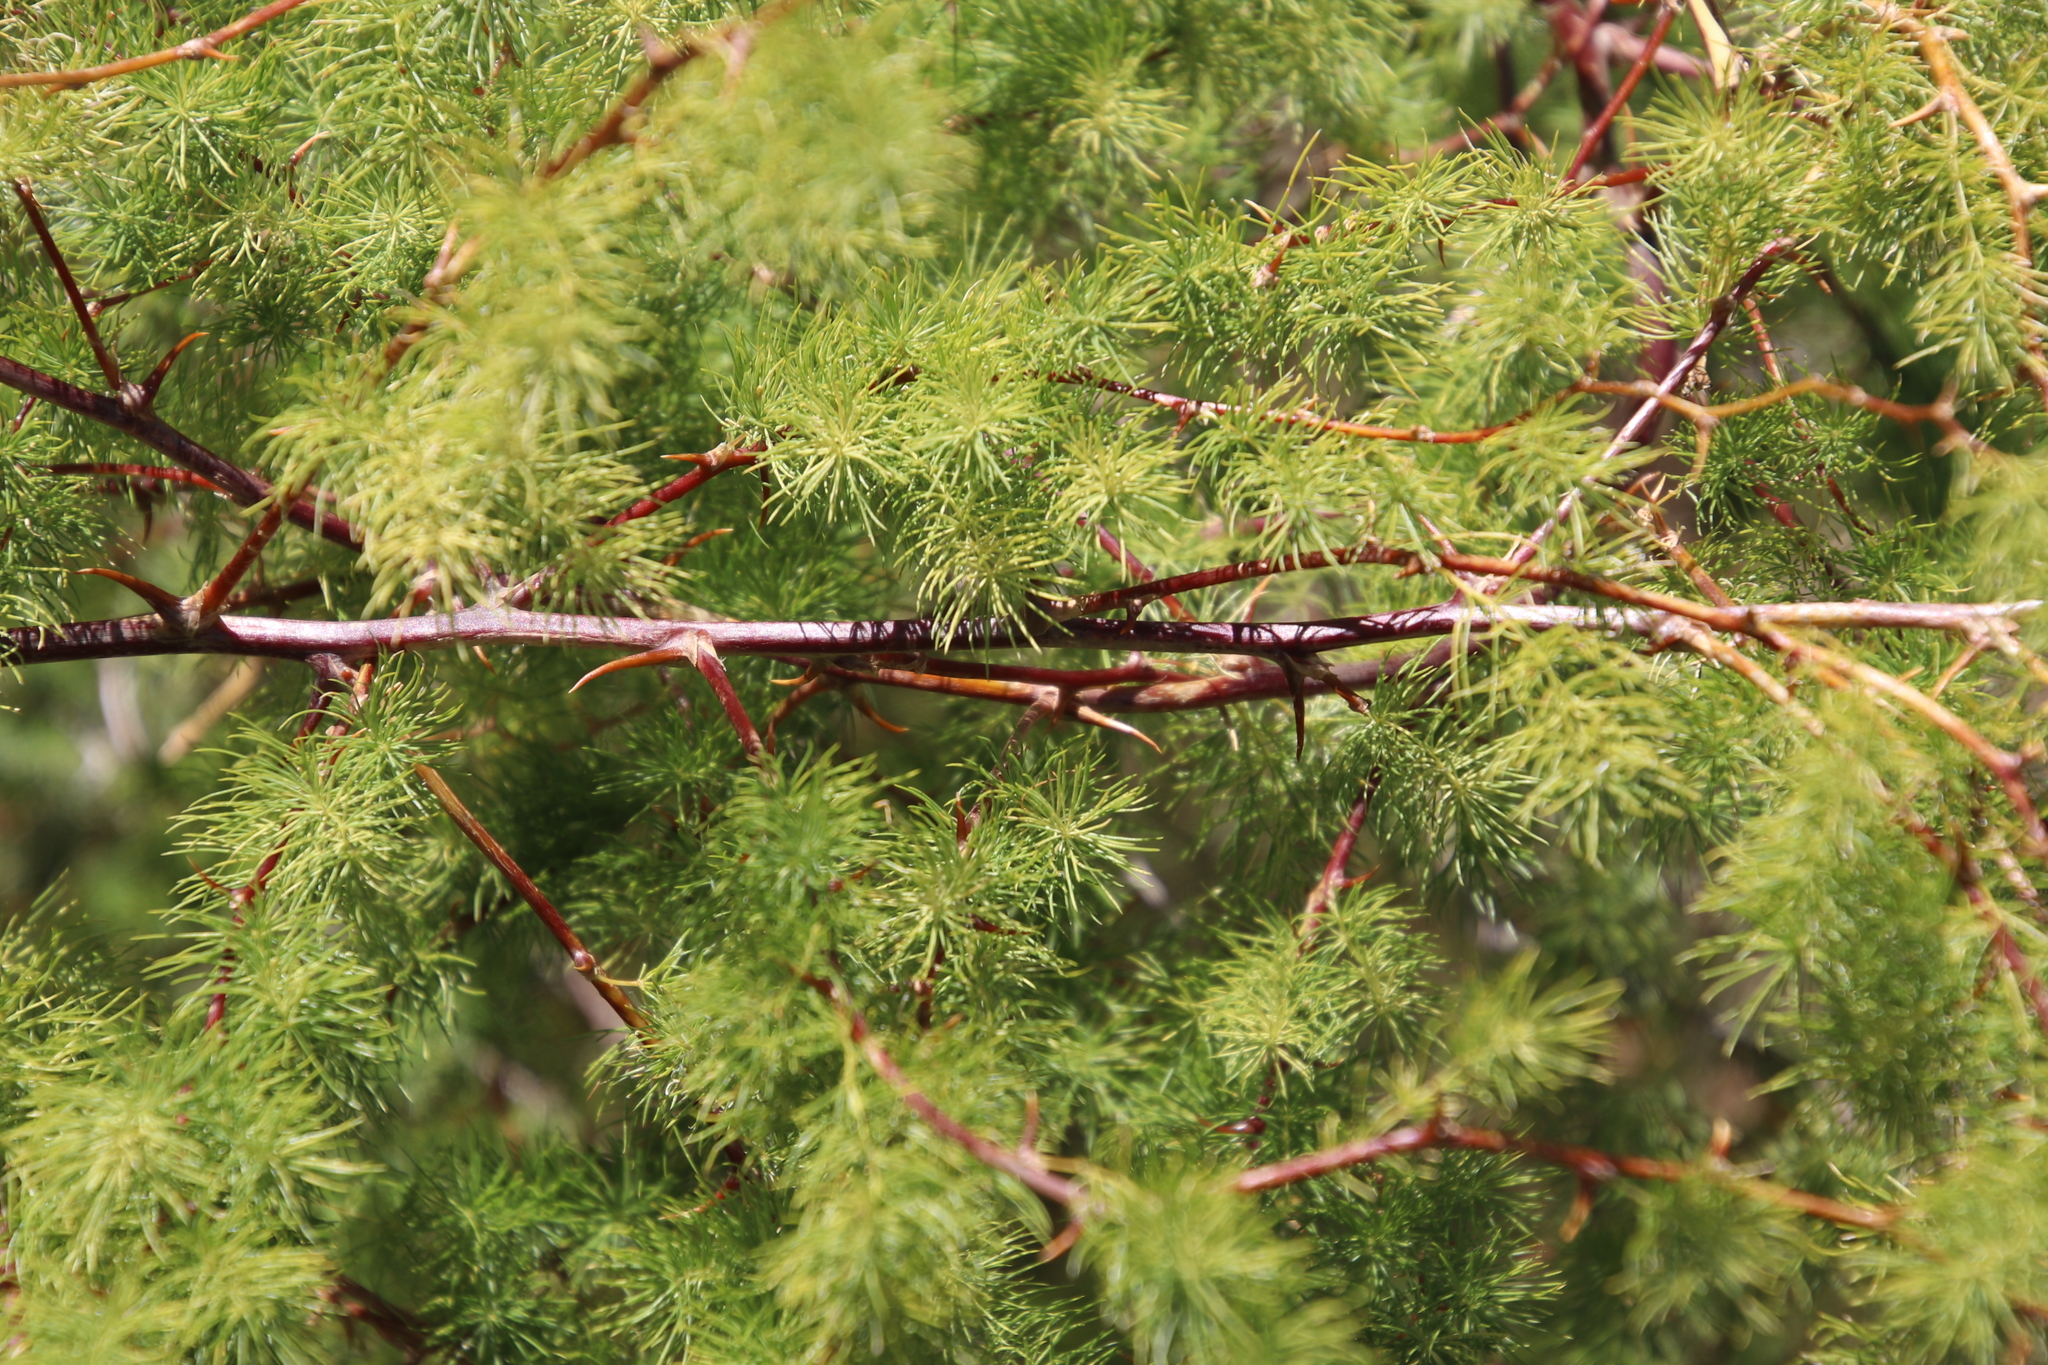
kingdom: Plantae
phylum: Tracheophyta
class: Liliopsida
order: Asparagales
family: Asparagaceae
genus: Asparagus
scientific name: Asparagus rubicundus
